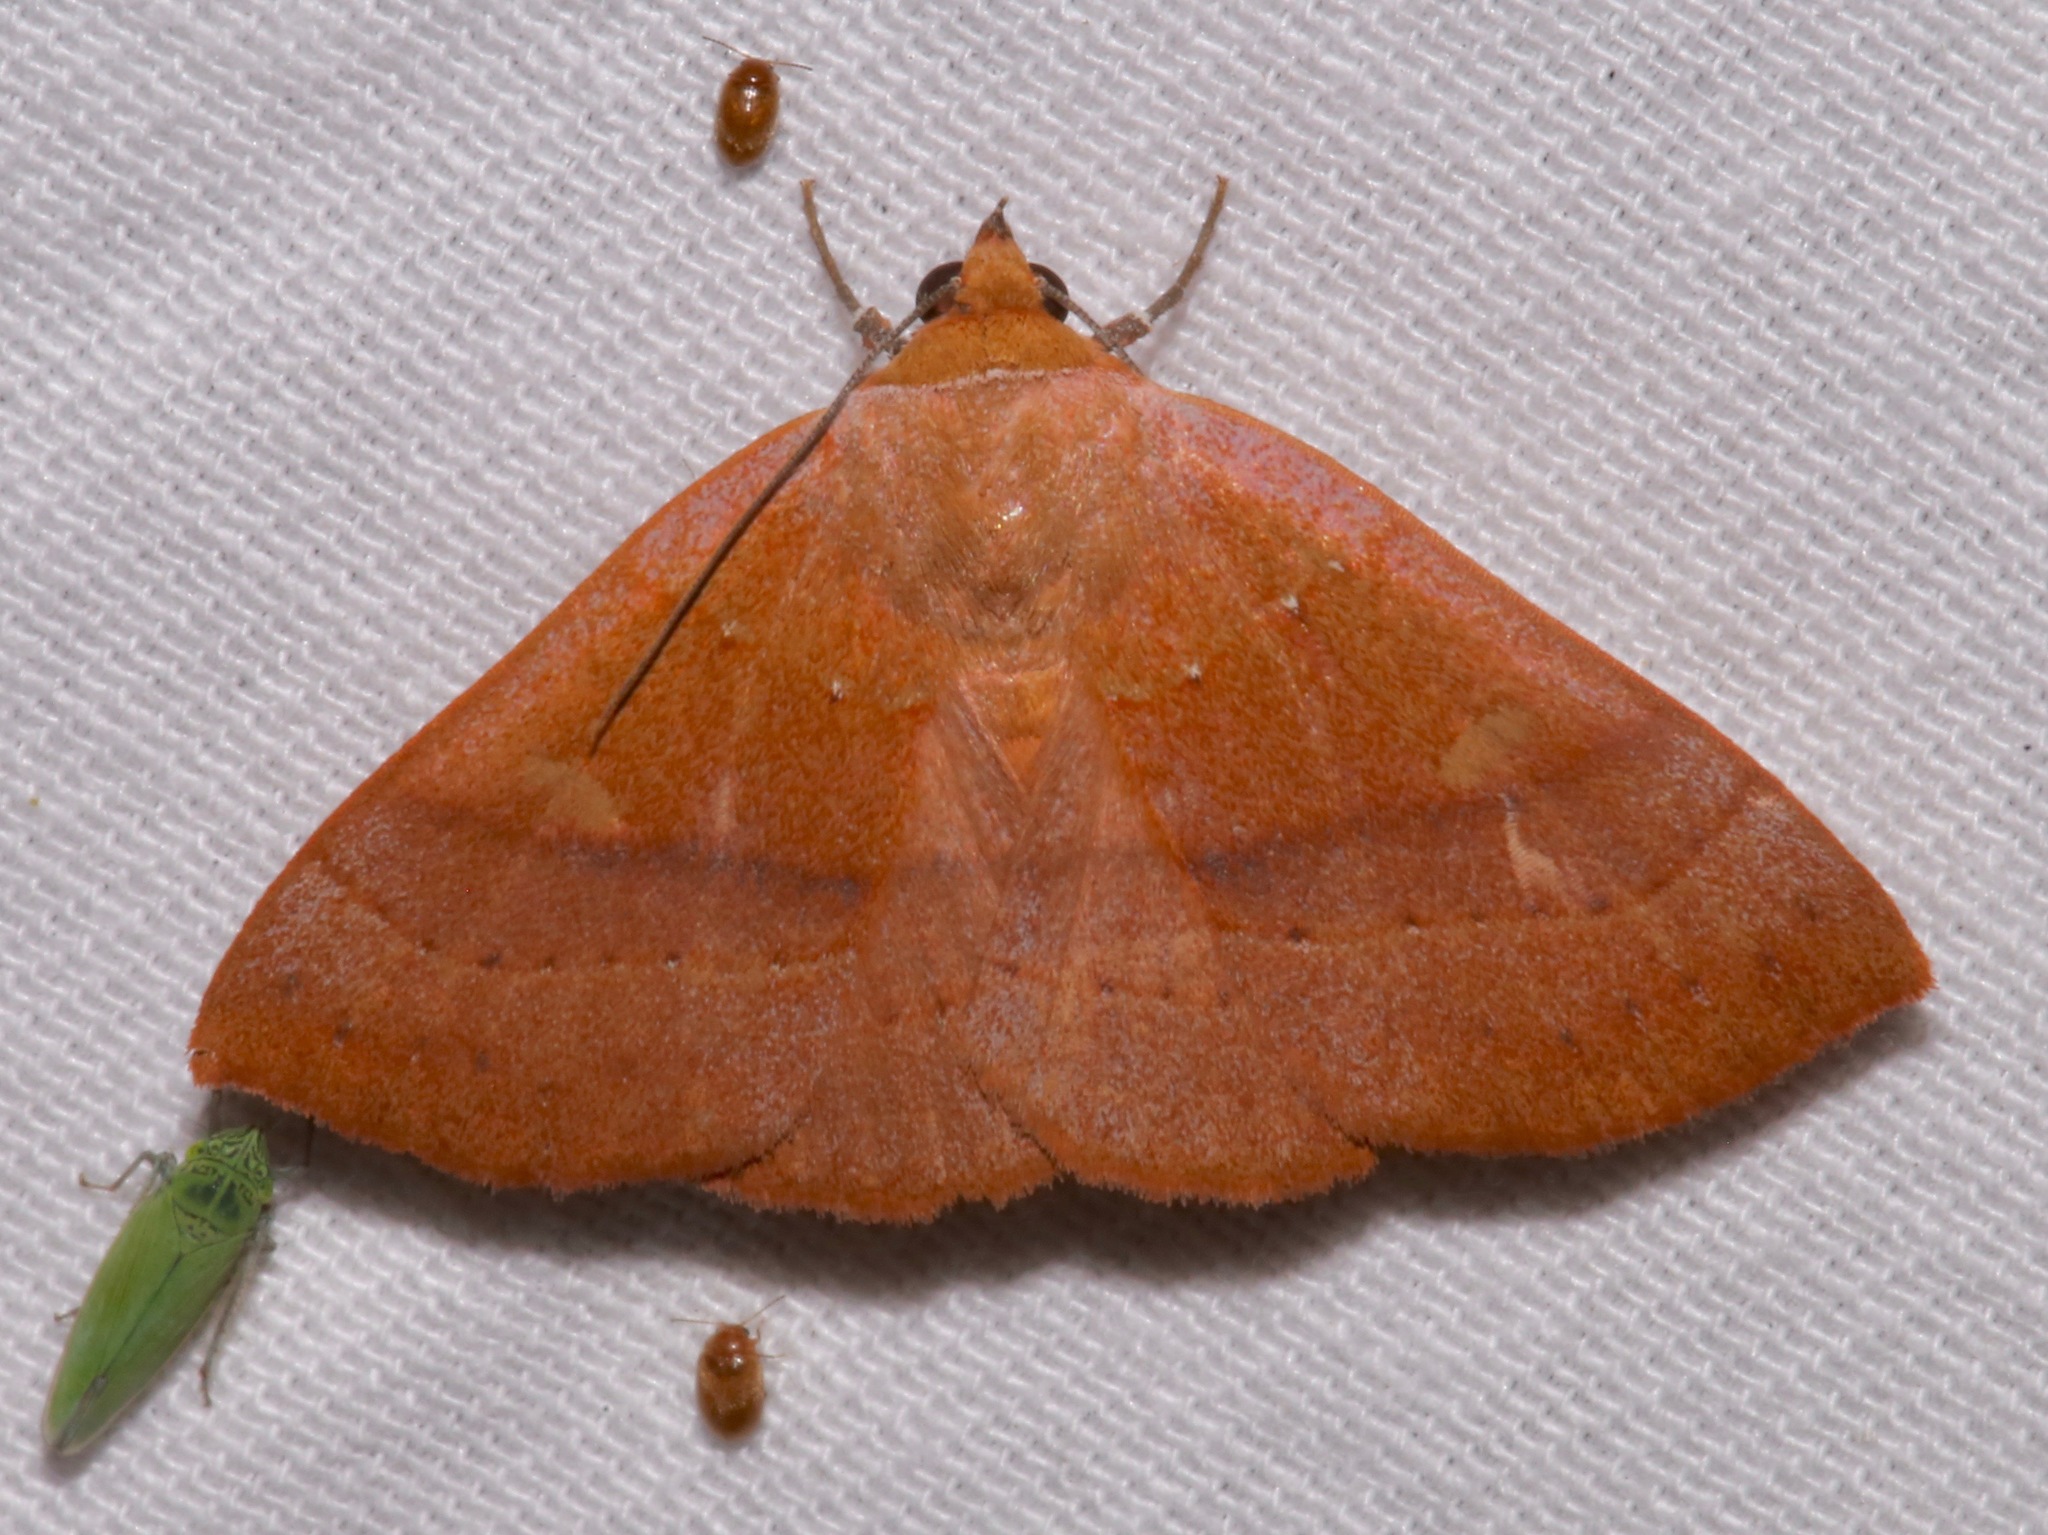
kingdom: Animalia
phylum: Arthropoda
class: Insecta
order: Lepidoptera
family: Erebidae
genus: Panopoda
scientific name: Panopoda repanda
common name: Orange panopoda
